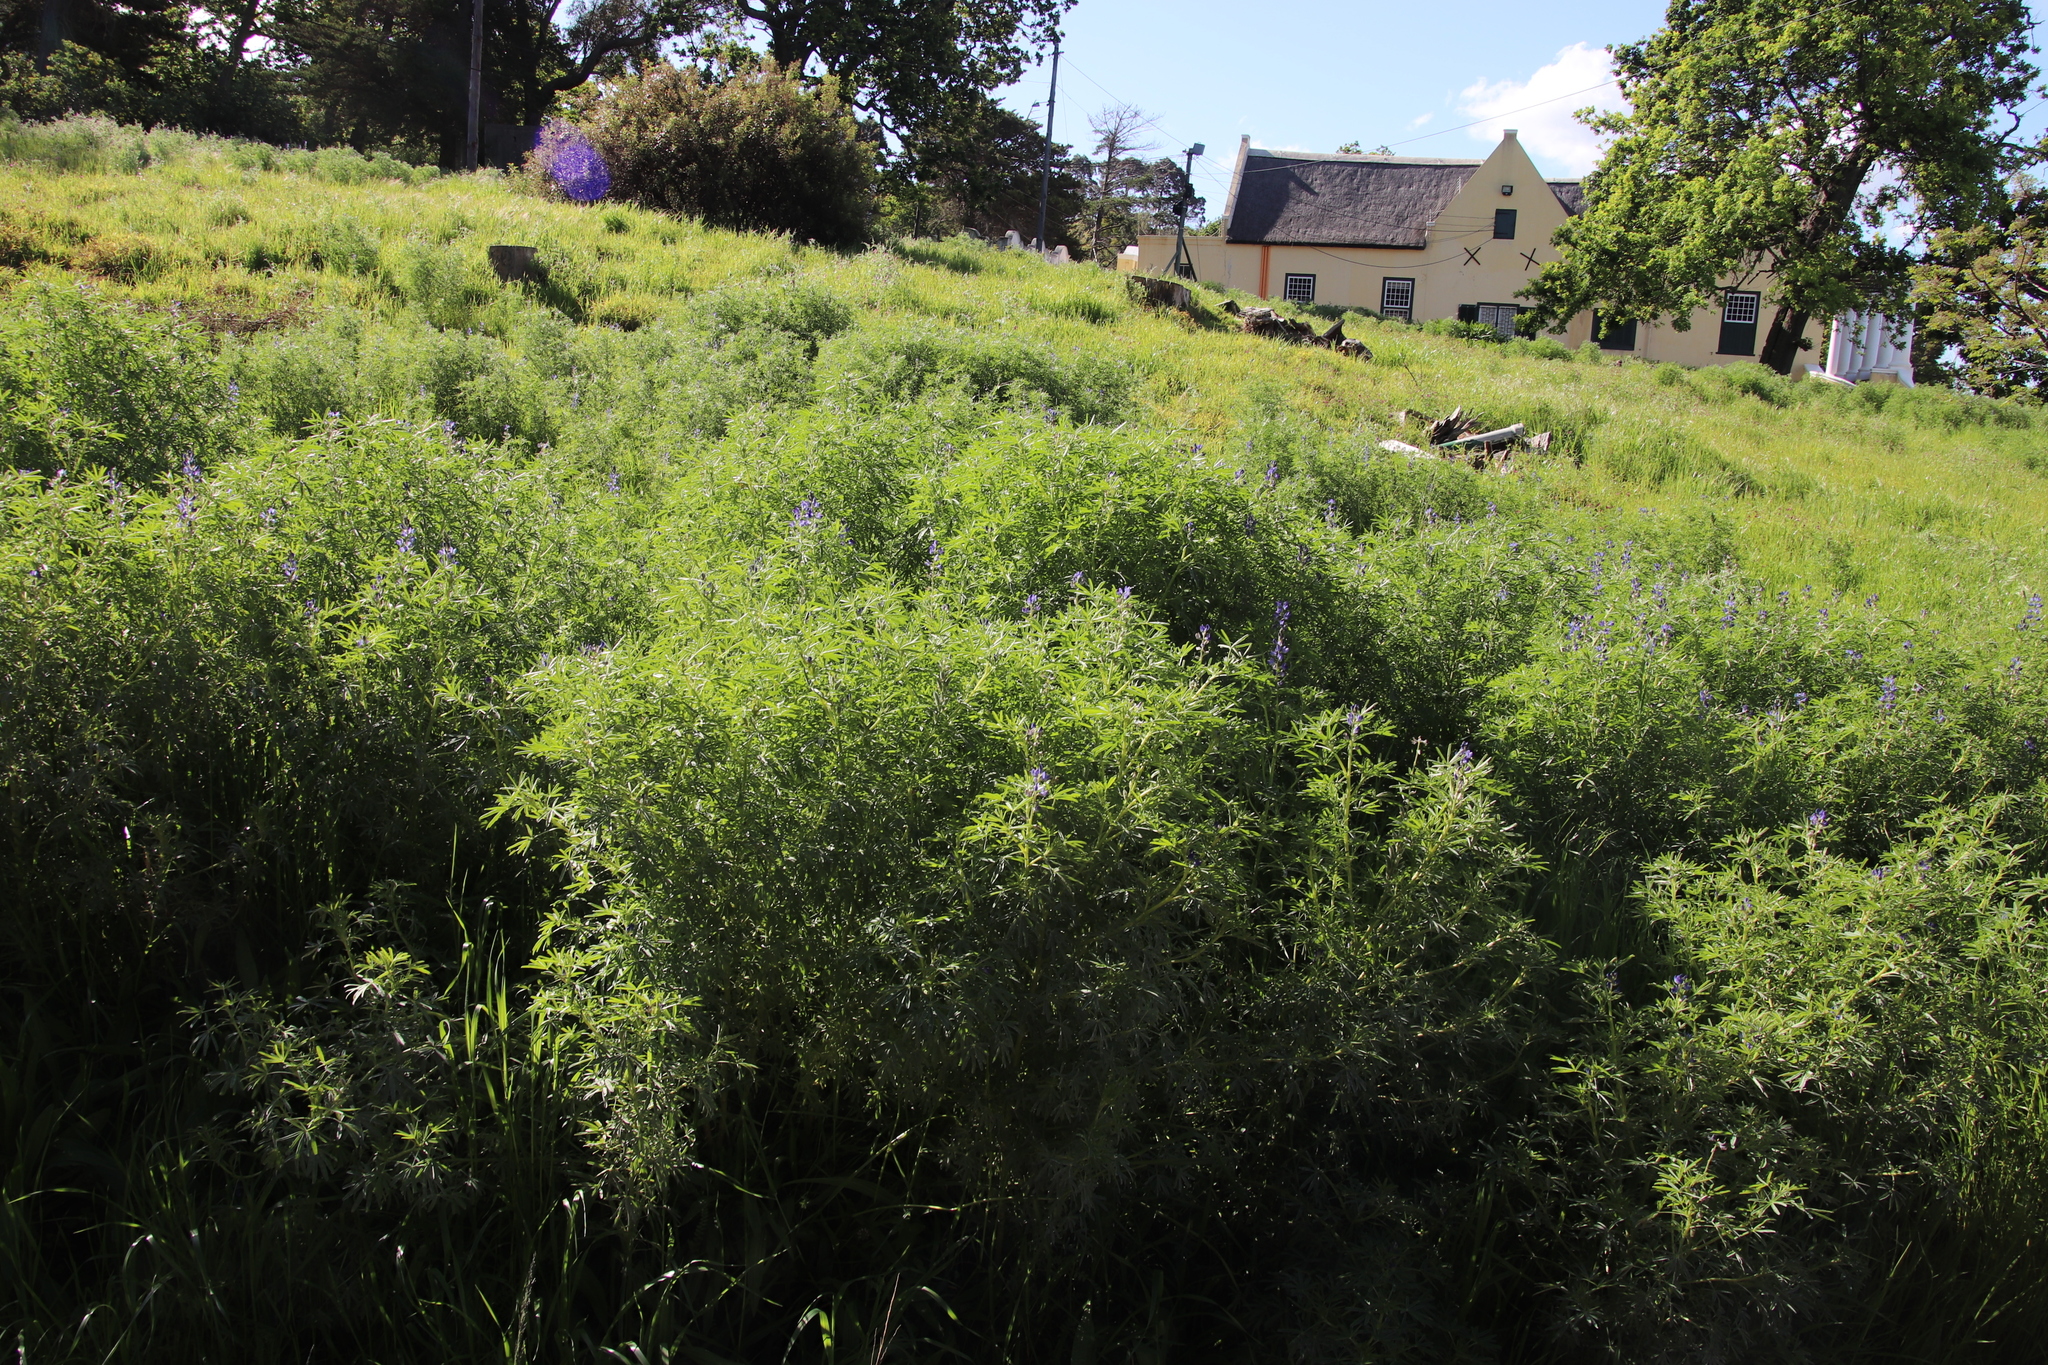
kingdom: Plantae
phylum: Tracheophyta
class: Magnoliopsida
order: Fabales
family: Fabaceae
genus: Lupinus
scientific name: Lupinus angustifolius
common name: Narrow-leaved lupin
